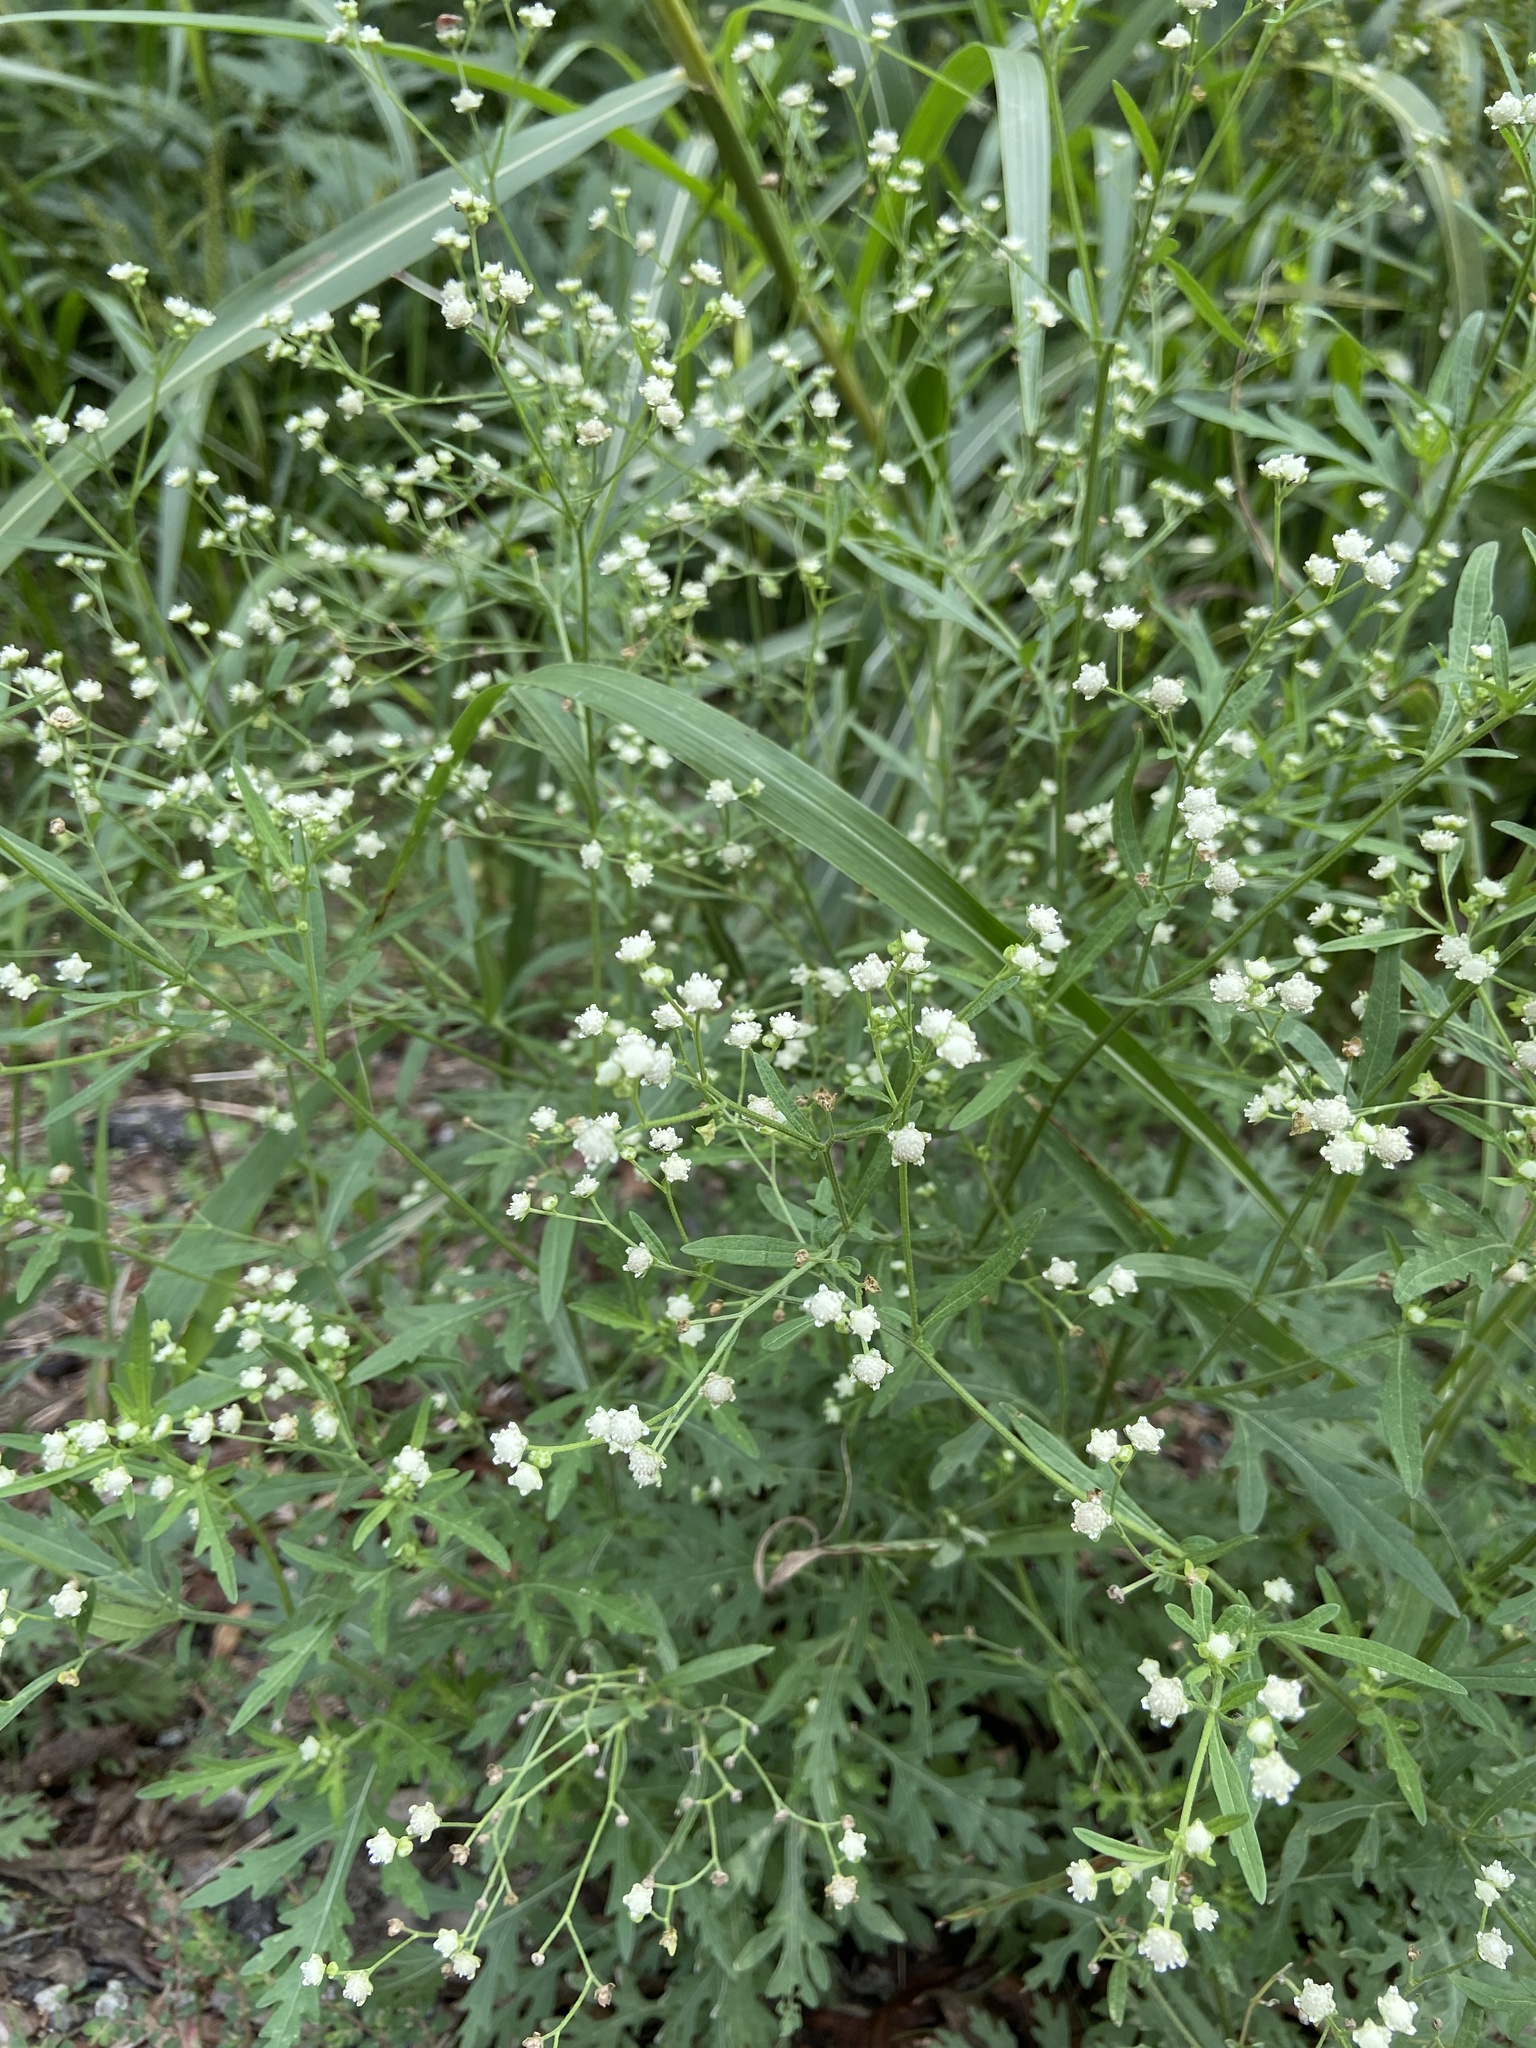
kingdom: Plantae
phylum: Tracheophyta
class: Magnoliopsida
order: Asterales
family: Asteraceae
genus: Parthenium
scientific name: Parthenium hysterophorus
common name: Santa maria feverfew
